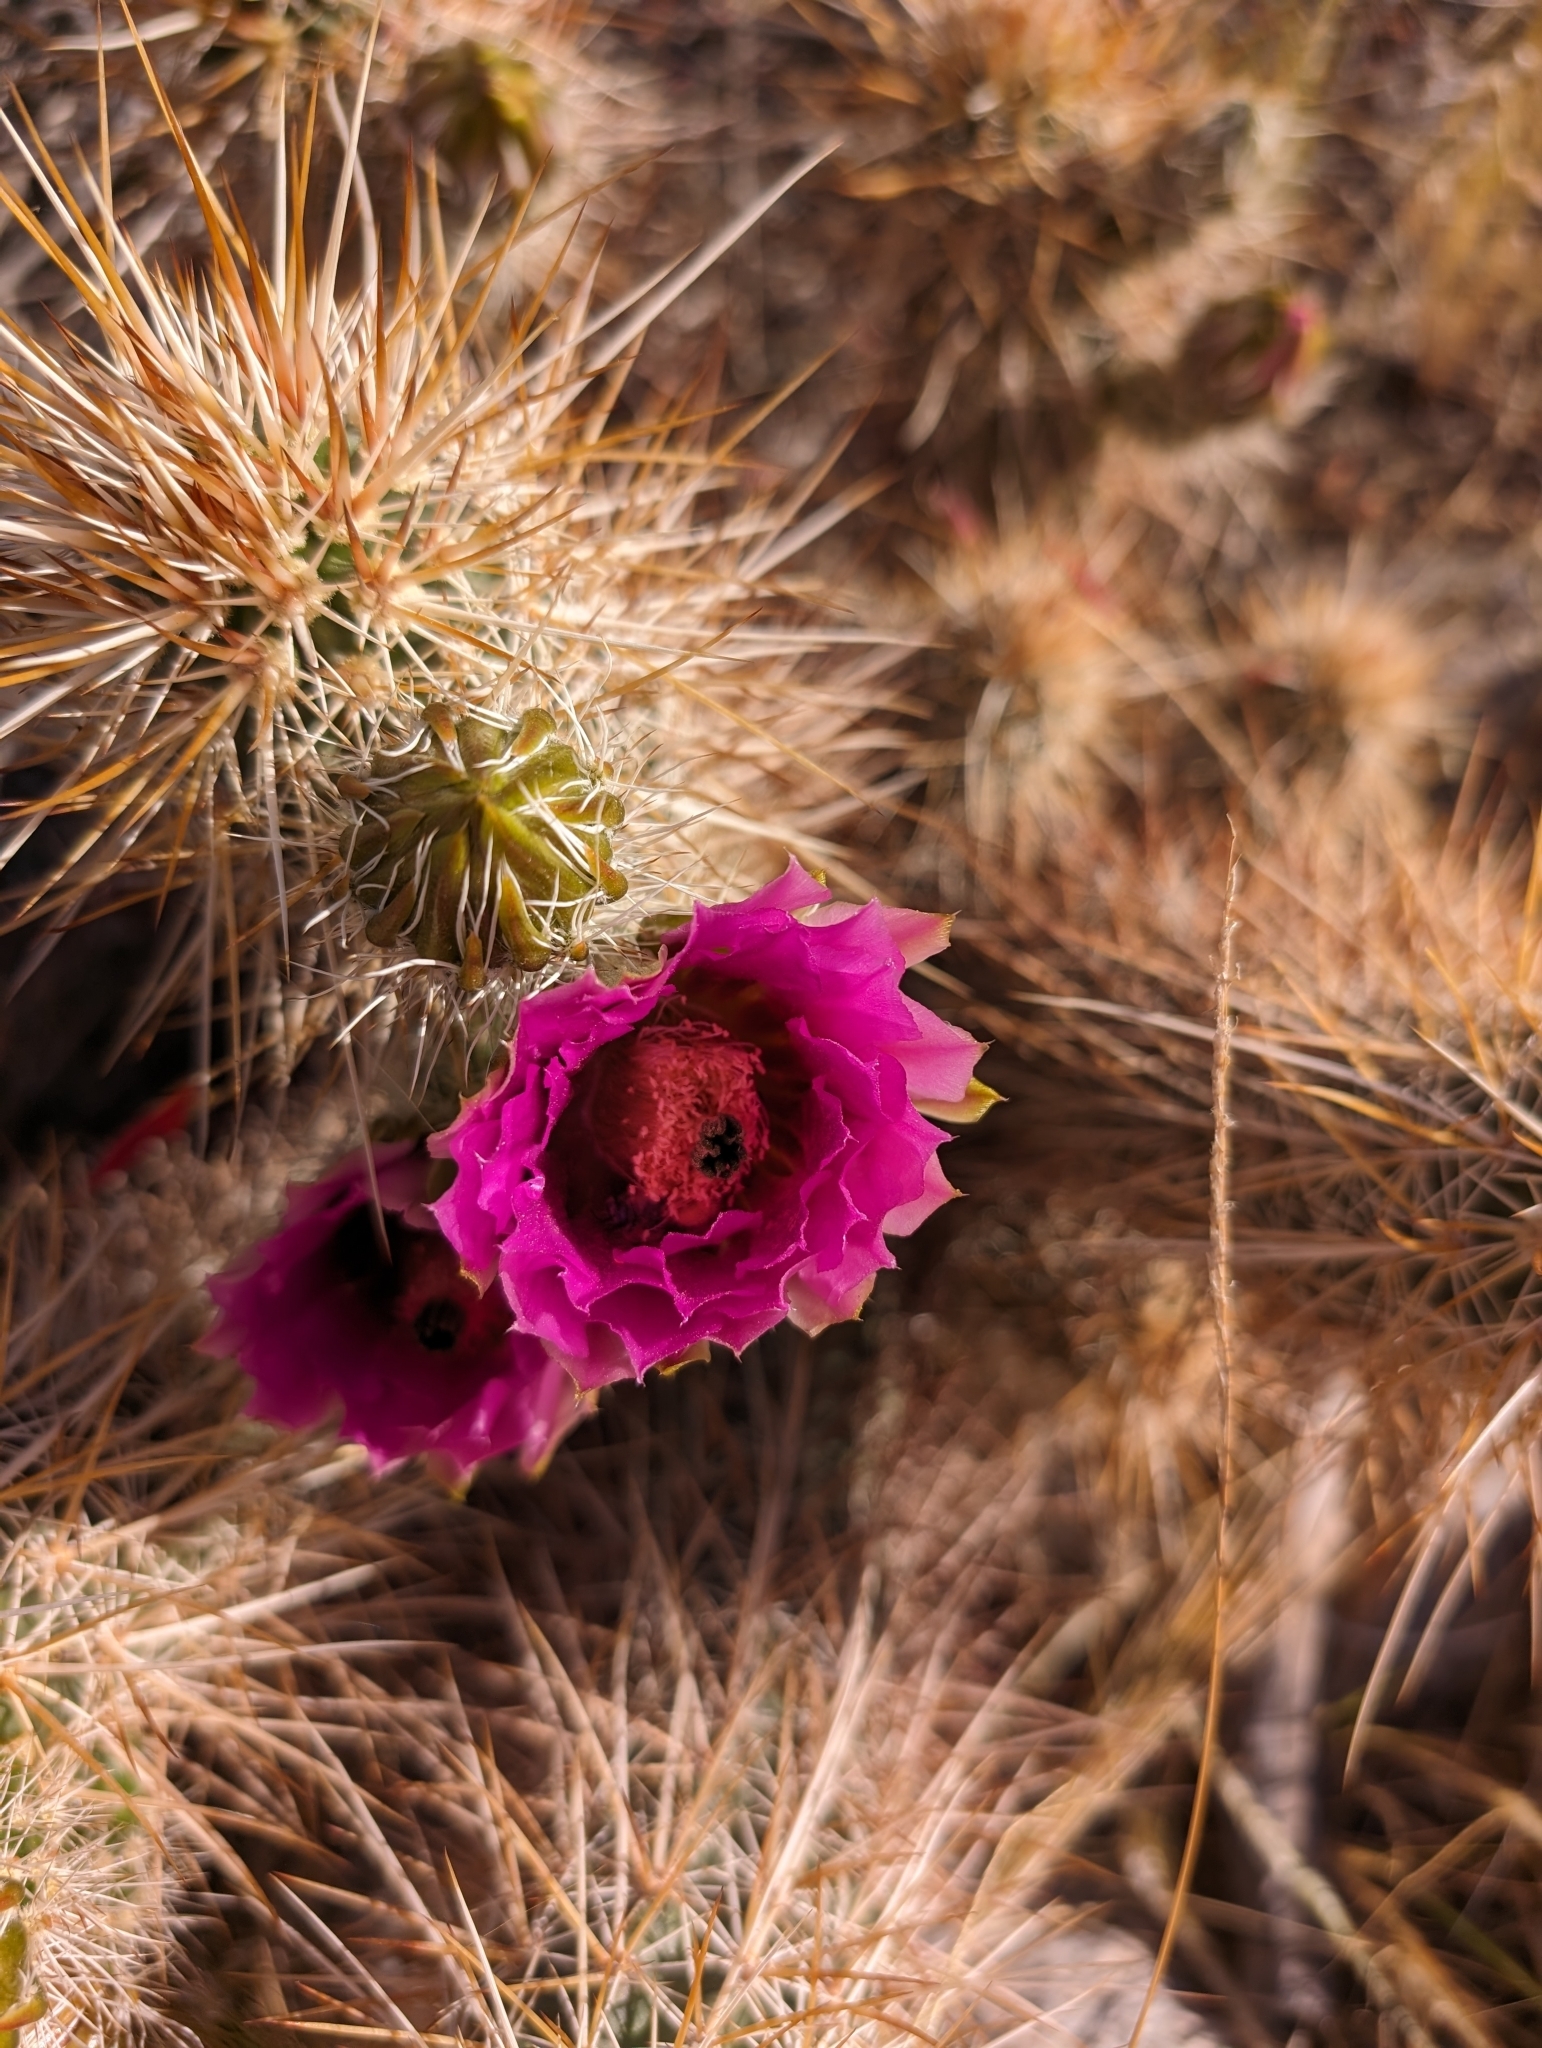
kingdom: Plantae
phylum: Tracheophyta
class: Magnoliopsida
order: Caryophyllales
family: Cactaceae
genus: Echinocereus
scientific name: Echinocereus engelmannii
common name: Engelmann's hedgehog cactus
